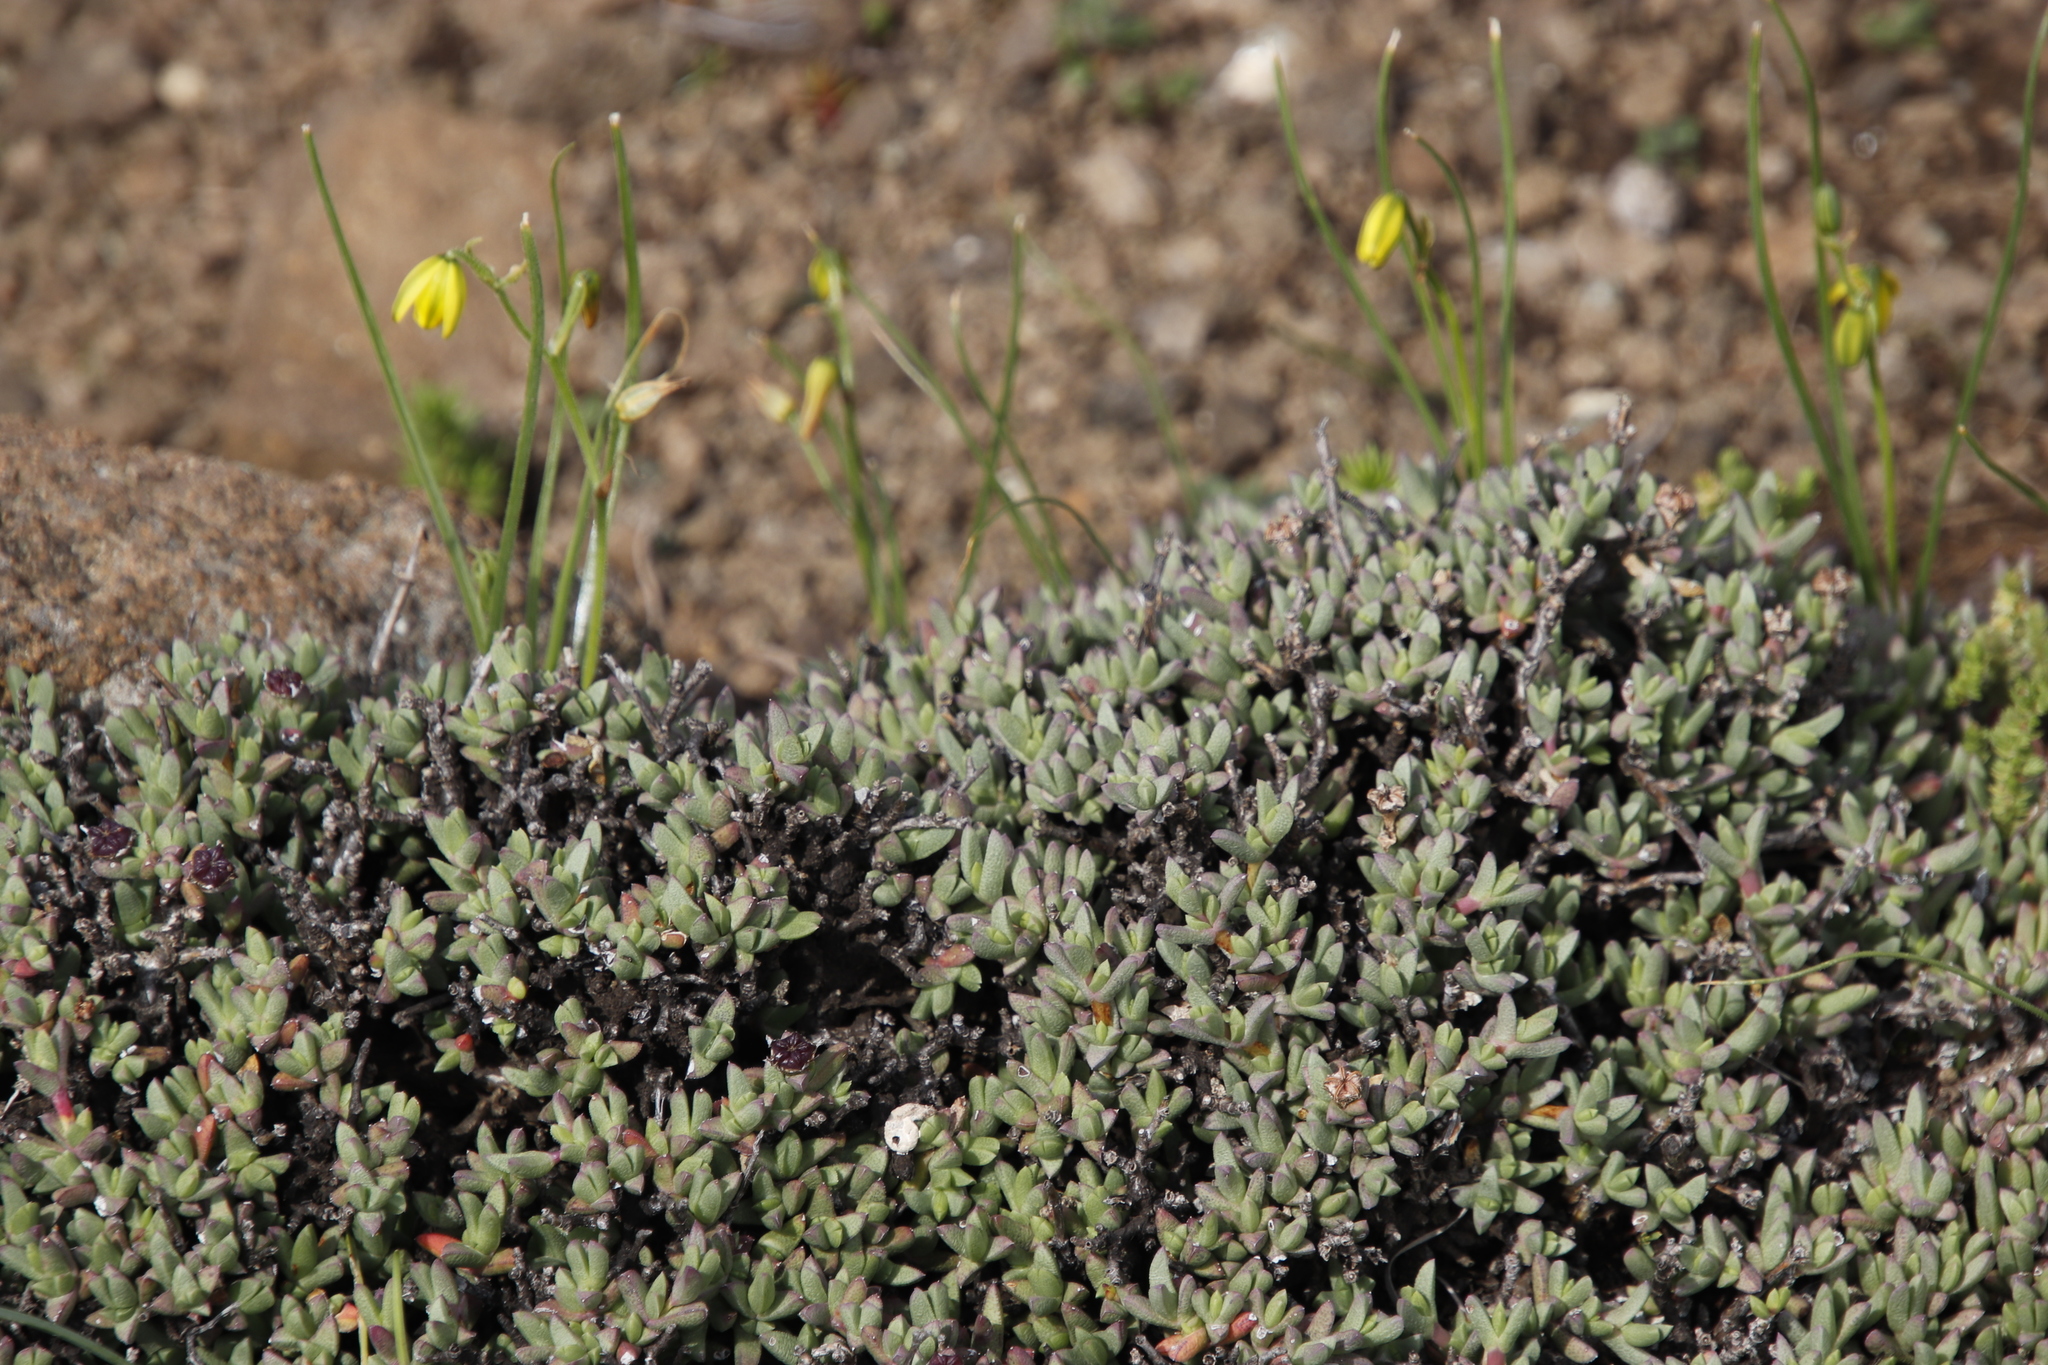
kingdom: Plantae
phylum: Tracheophyta
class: Magnoliopsida
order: Caryophyllales
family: Aizoaceae
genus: Ruschia
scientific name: Ruschia putterillii
